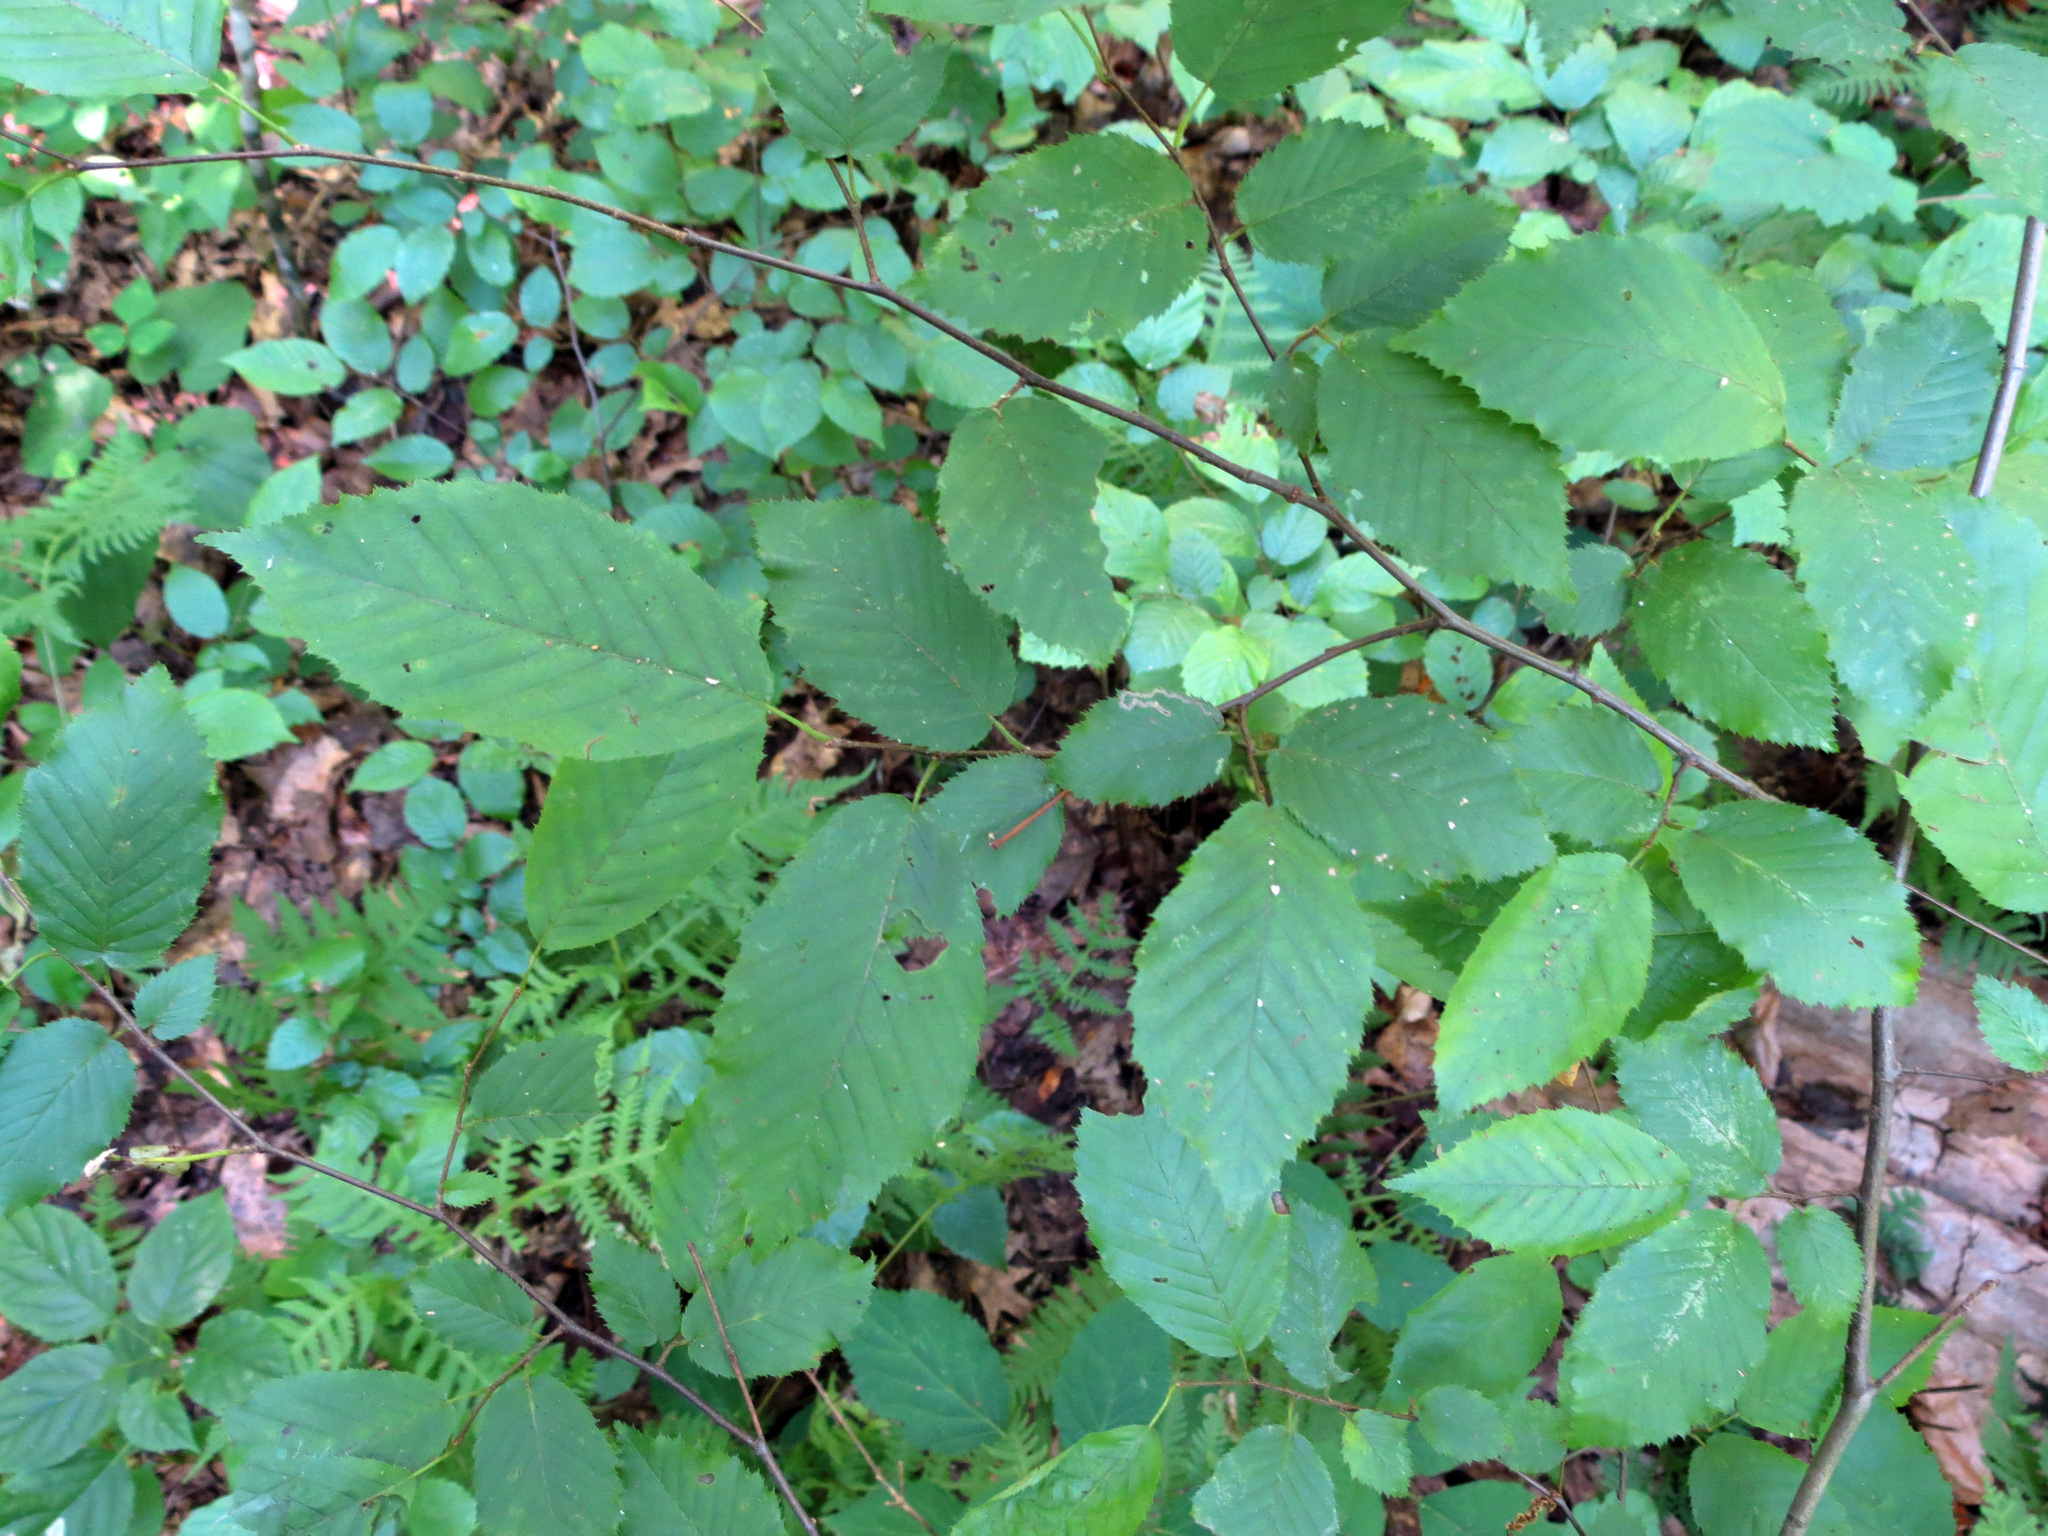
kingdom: Plantae
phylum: Tracheophyta
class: Magnoliopsida
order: Fagales
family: Betulaceae
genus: Carpinus
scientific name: Carpinus caroliniana
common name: American hornbeam
